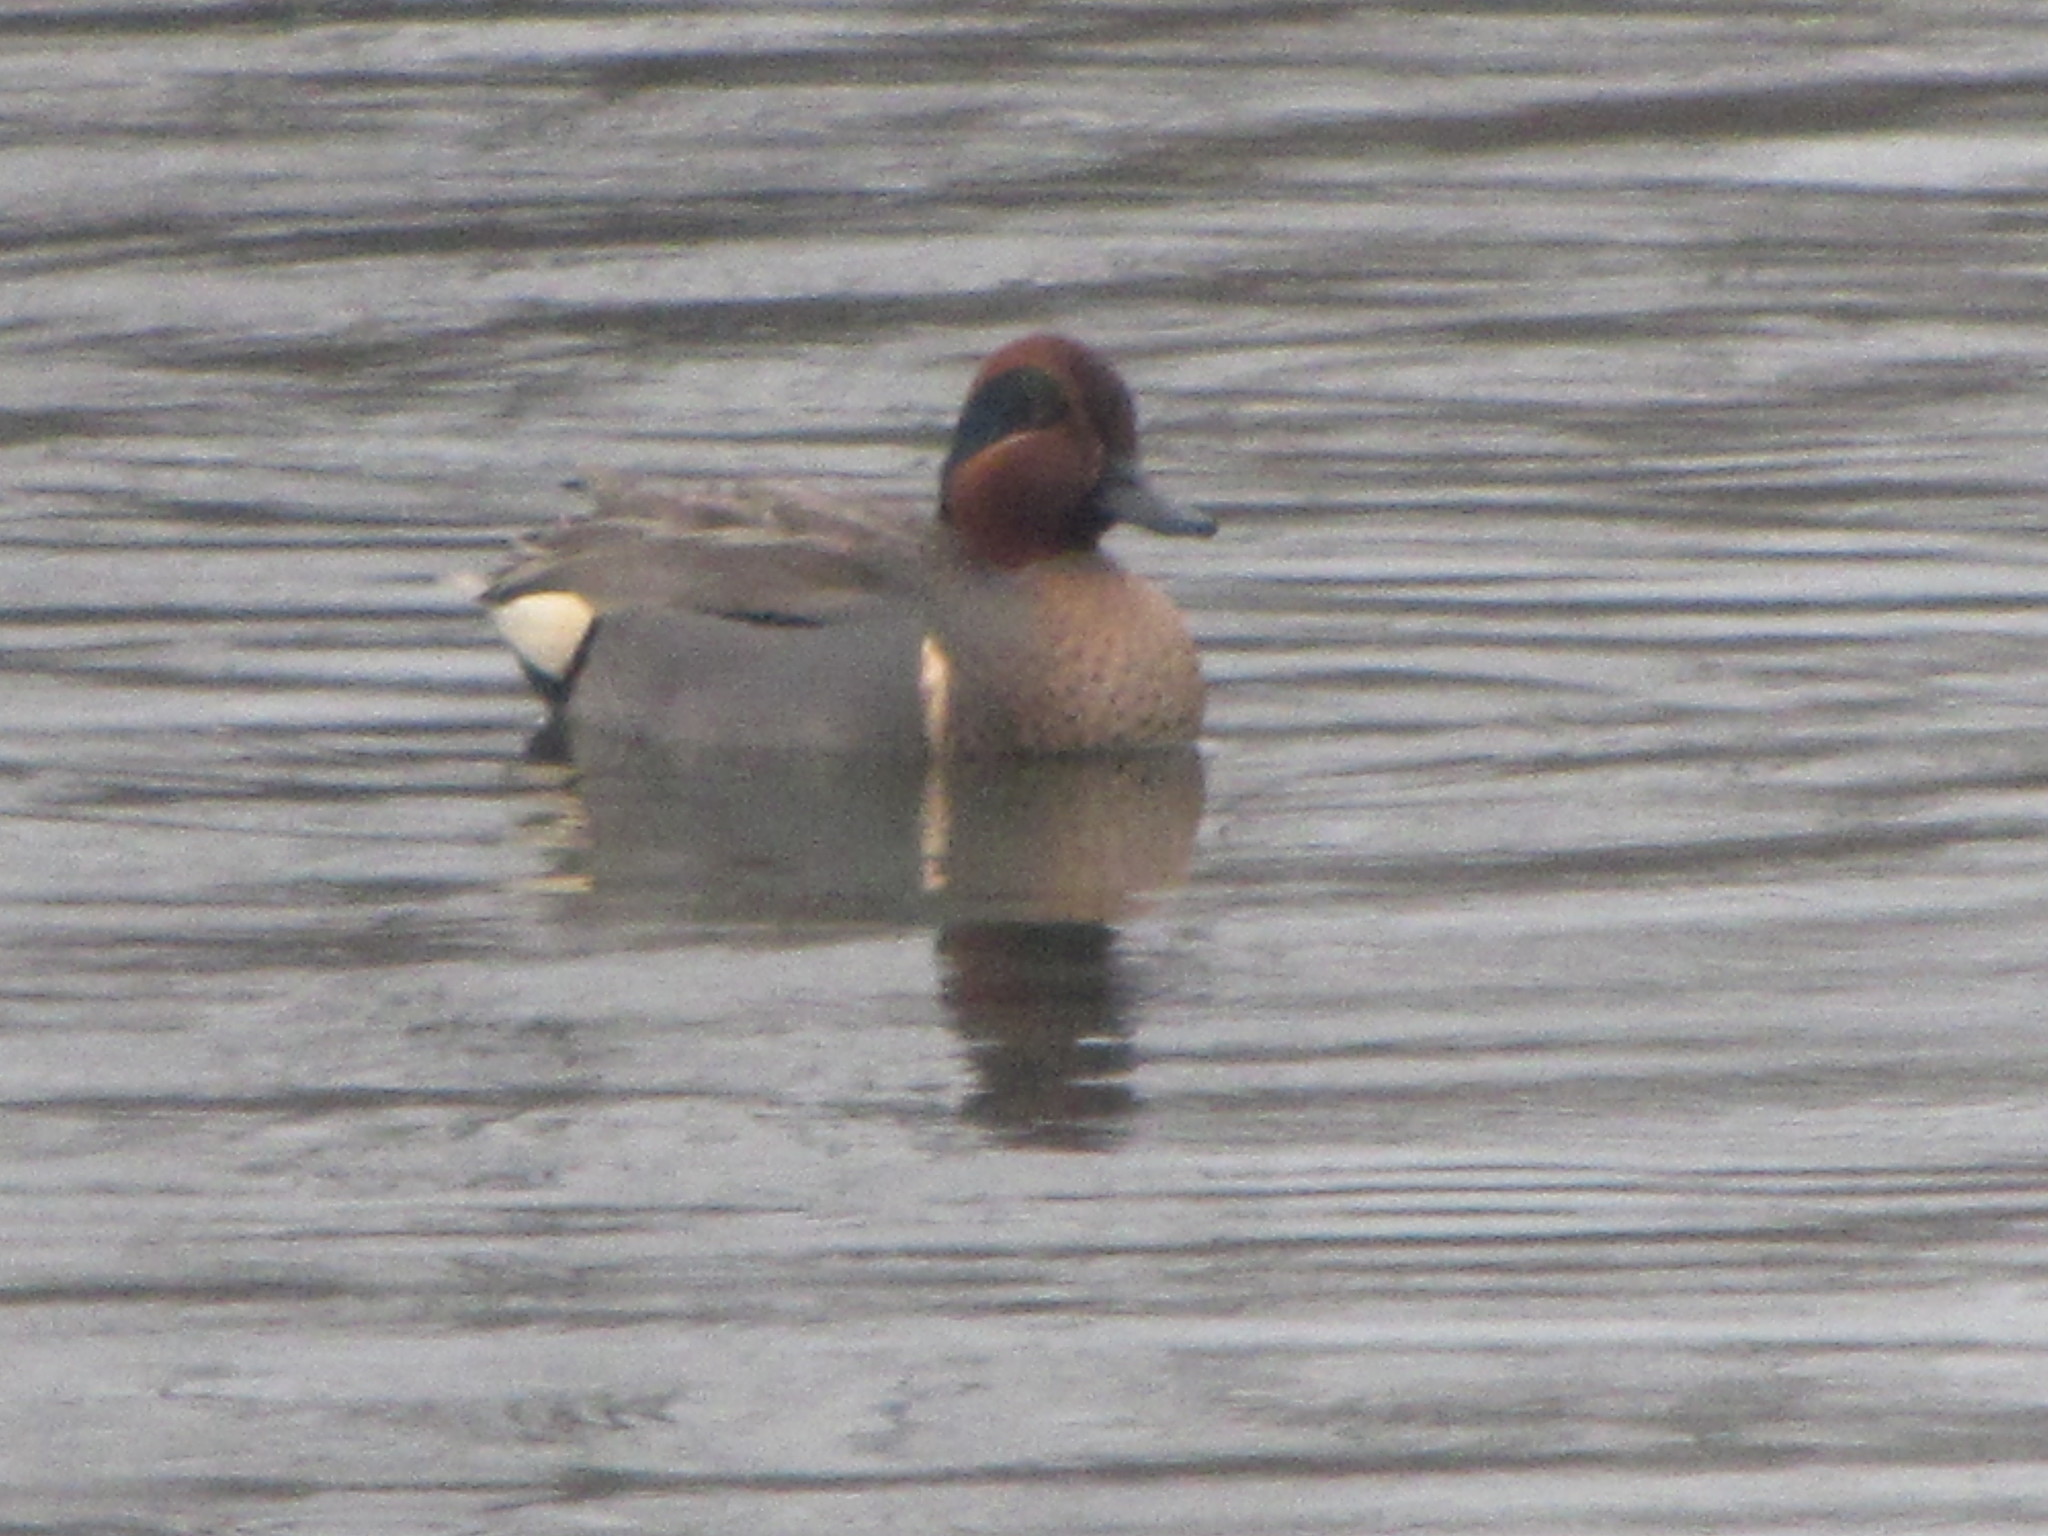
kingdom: Animalia
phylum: Chordata
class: Aves
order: Anseriformes
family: Anatidae
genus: Anas
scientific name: Anas crecca
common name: Eurasian teal
